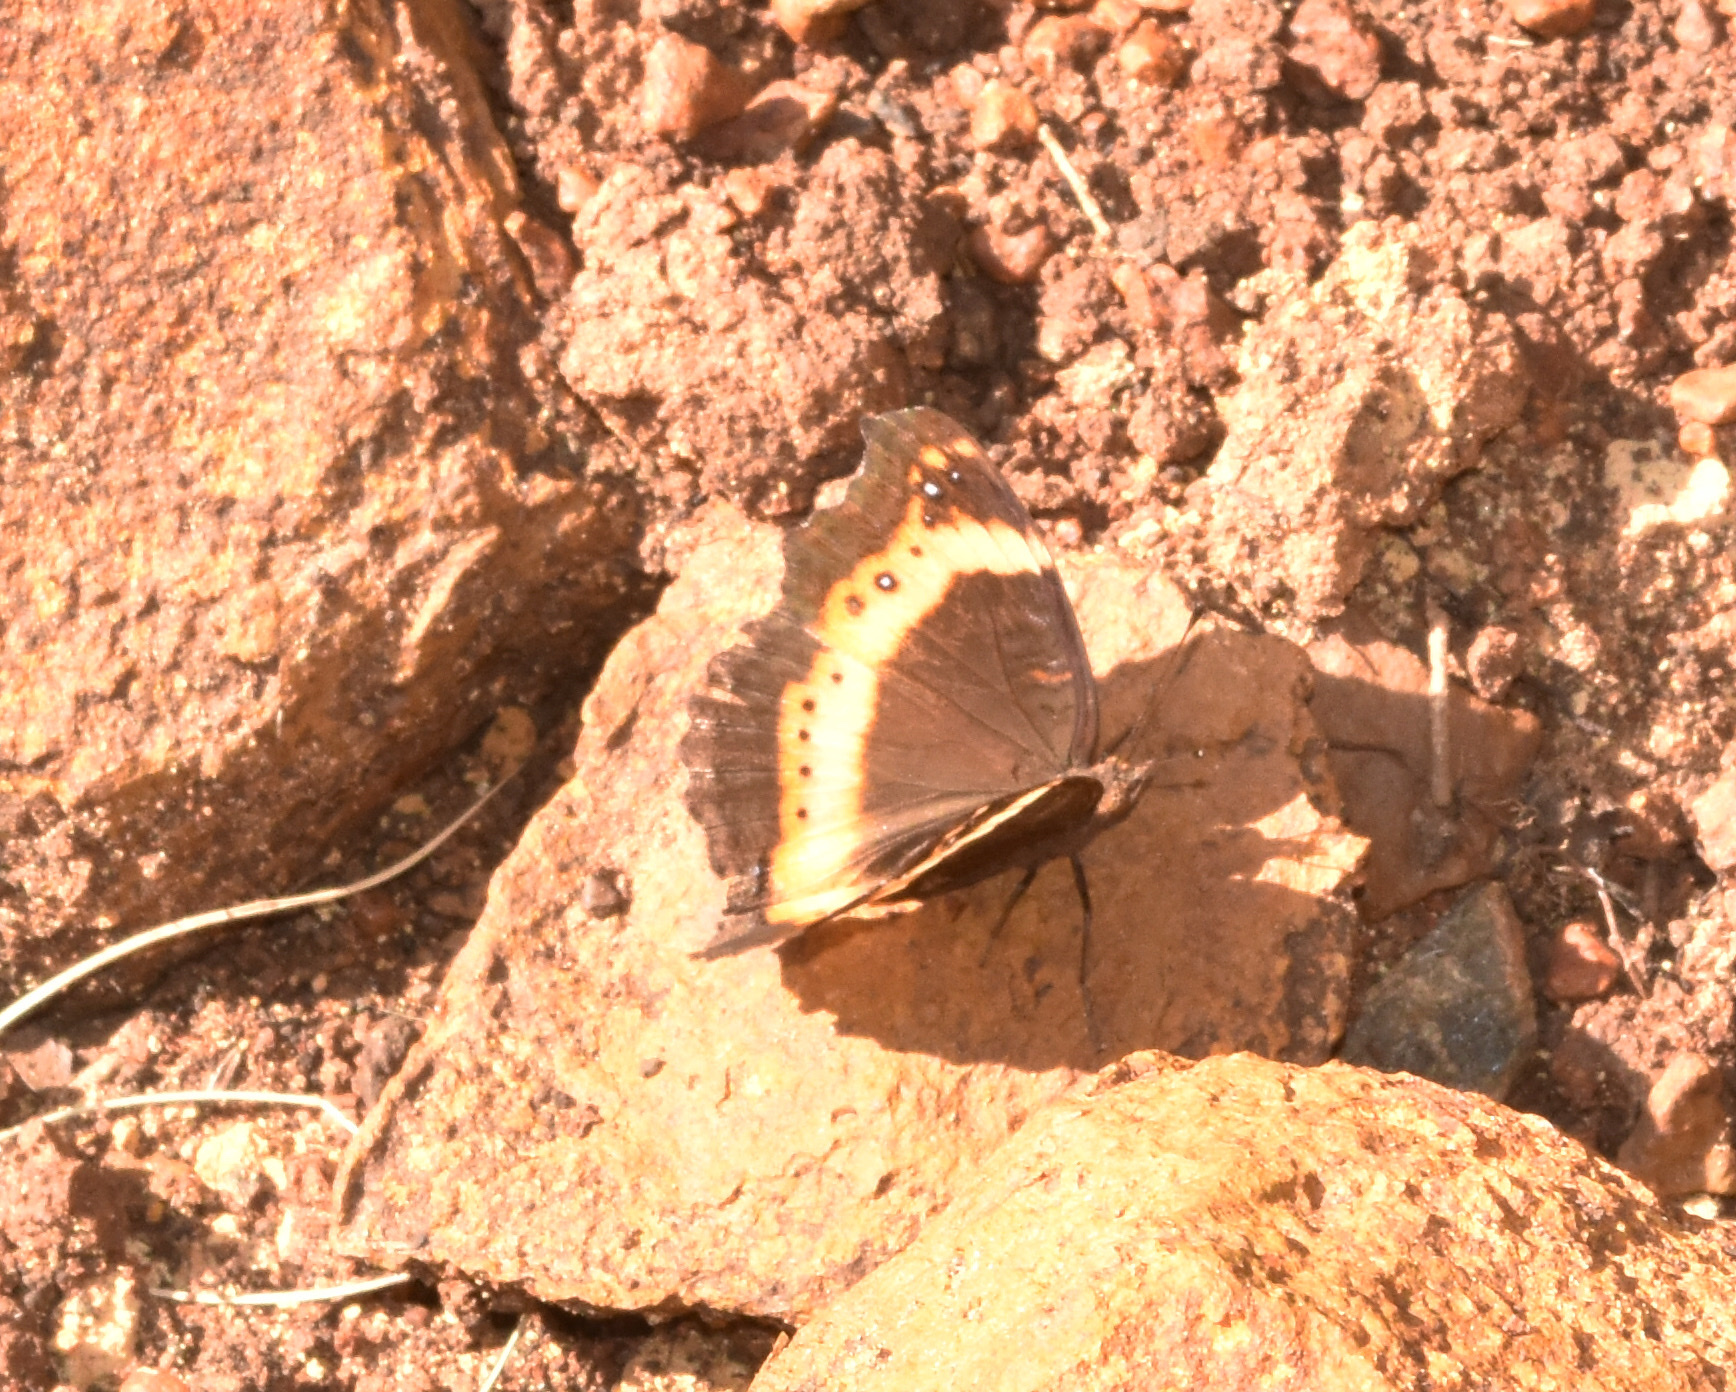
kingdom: Animalia
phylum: Arthropoda
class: Insecta
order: Lepidoptera
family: Nymphalidae
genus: Junonia
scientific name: Junonia archesia
